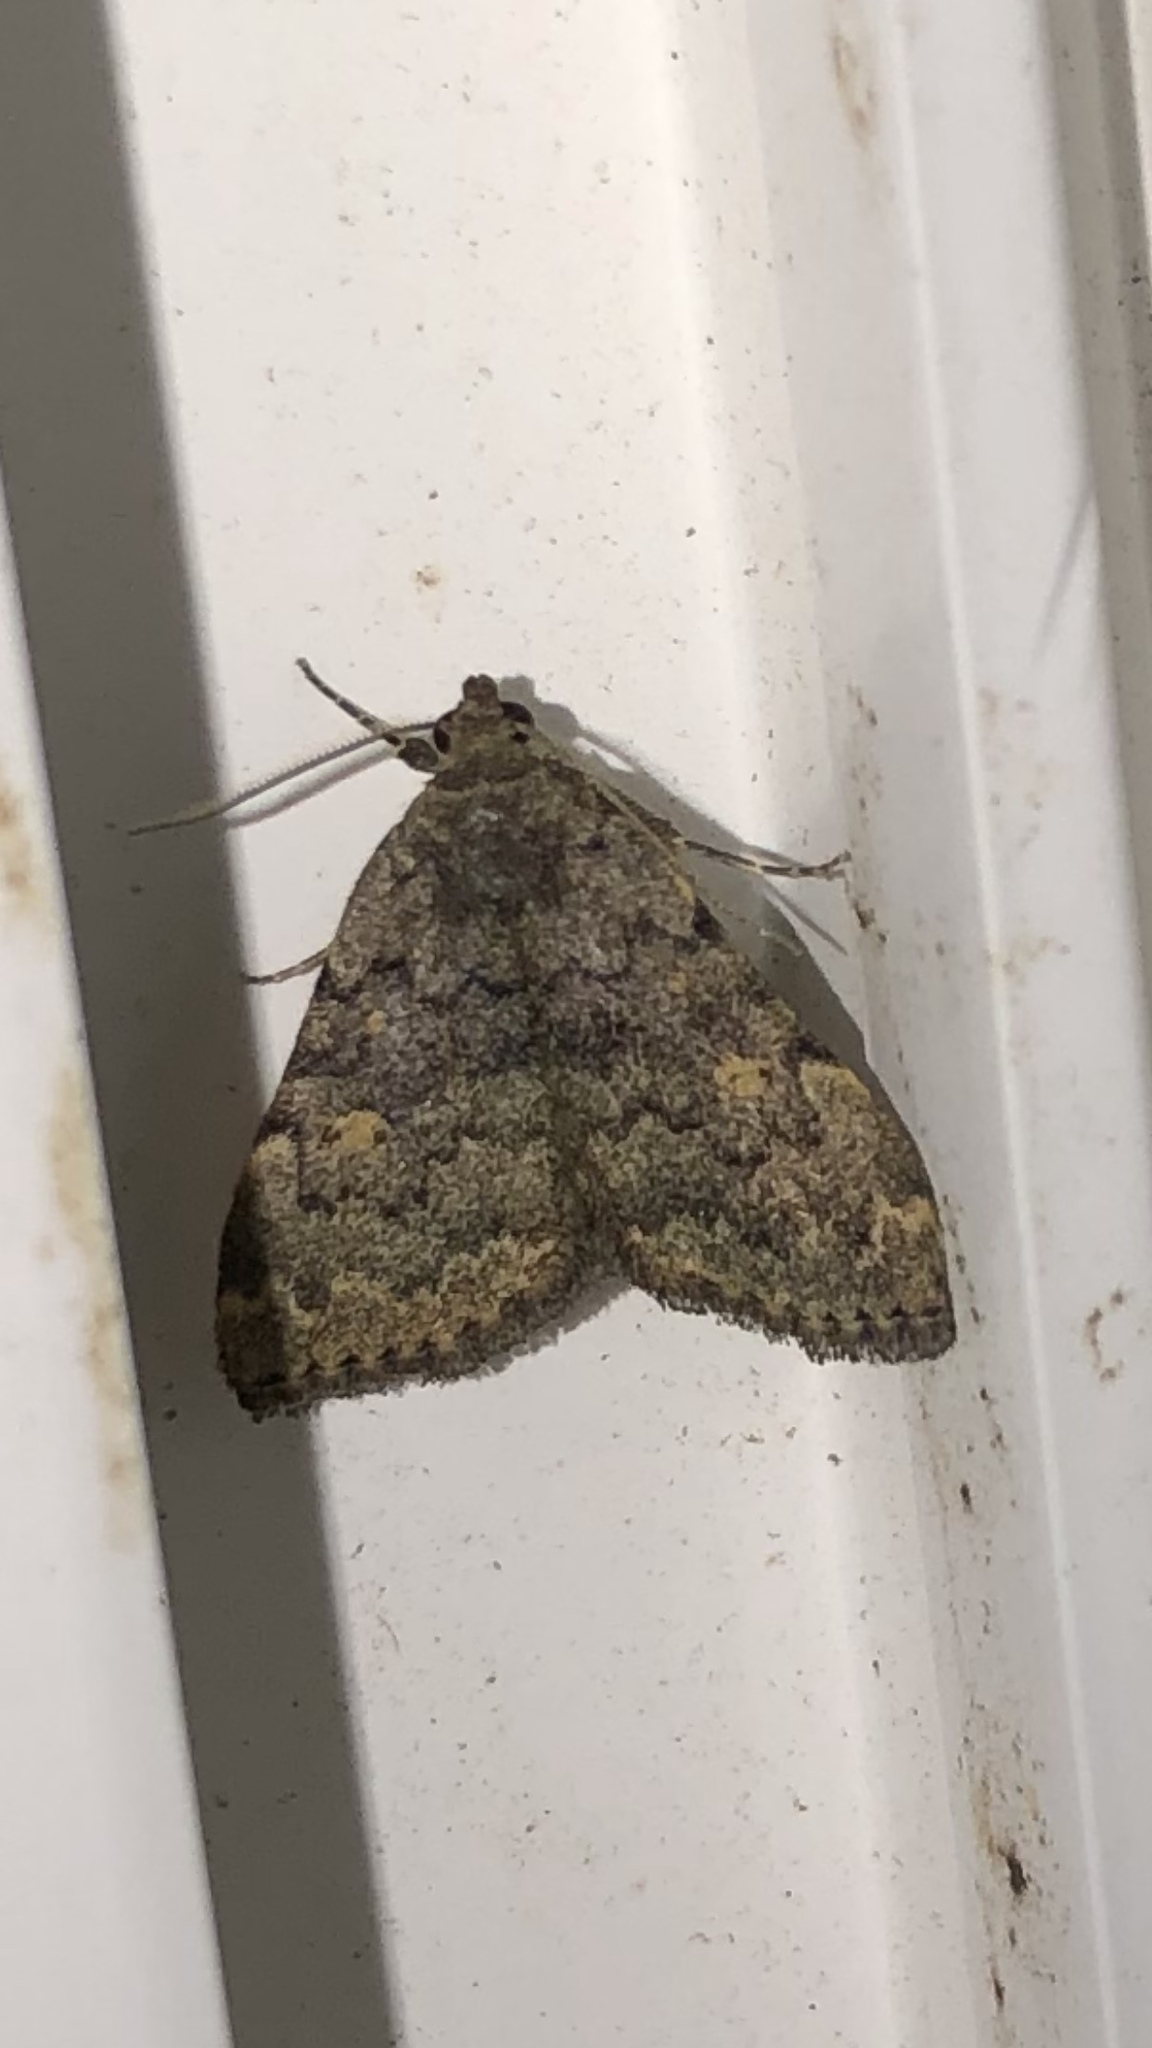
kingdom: Animalia
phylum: Arthropoda
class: Insecta
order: Lepidoptera
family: Erebidae
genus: Idia
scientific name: Idia aemula
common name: Common idia moth
